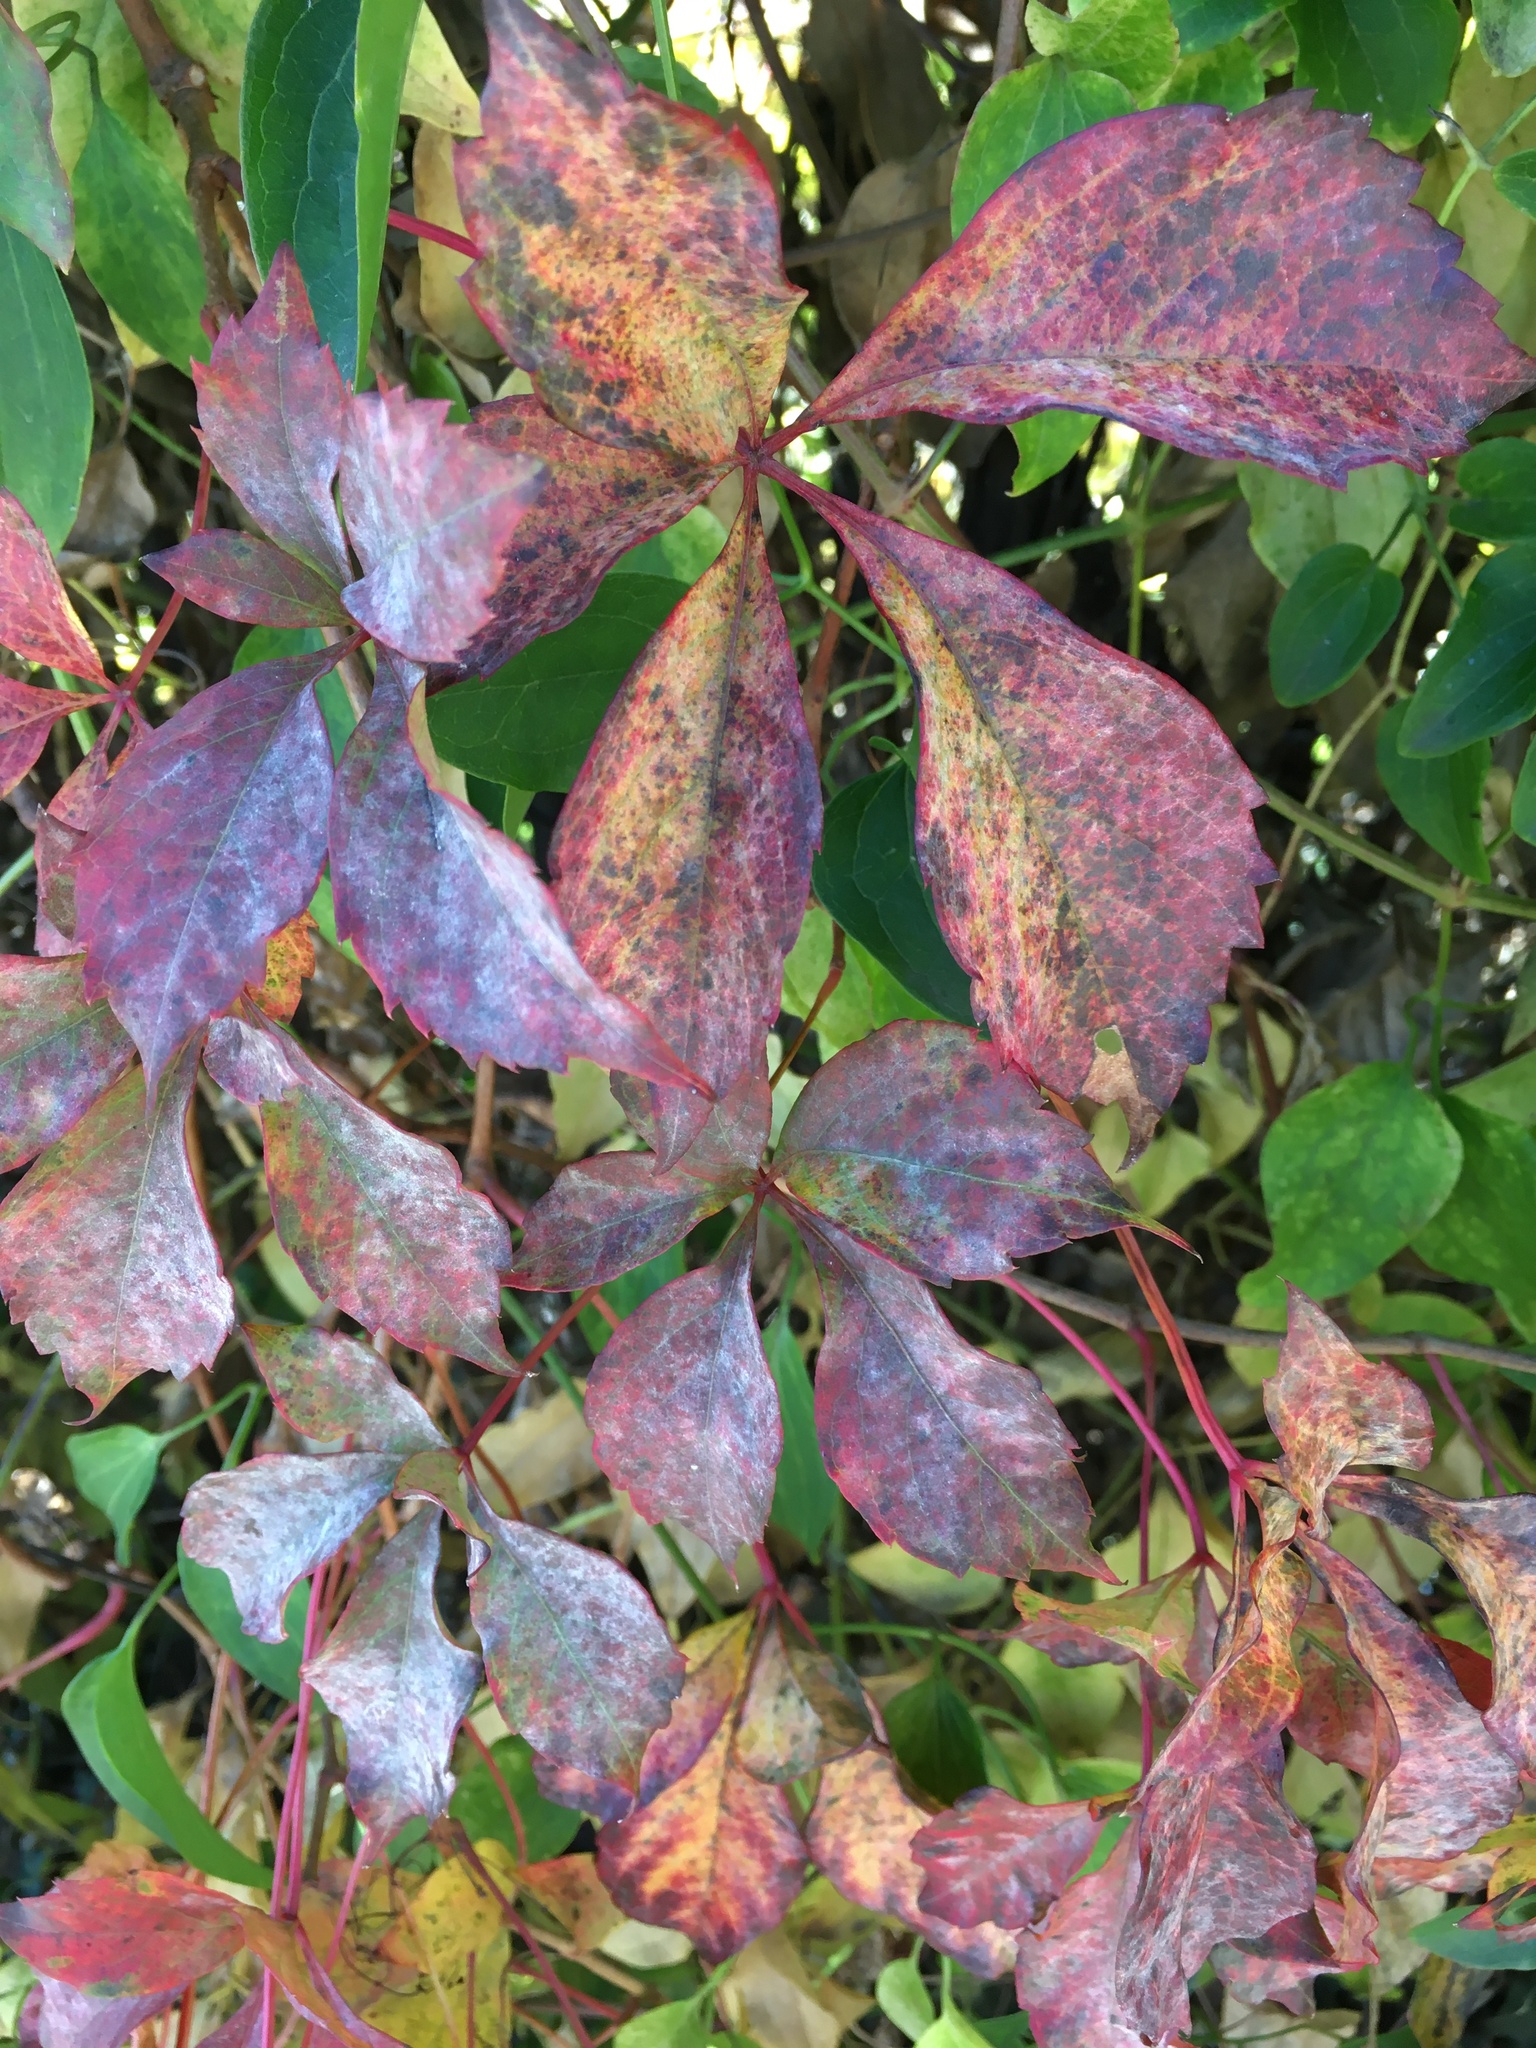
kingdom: Plantae
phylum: Tracheophyta
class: Magnoliopsida
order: Vitales
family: Vitaceae
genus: Parthenocissus
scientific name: Parthenocissus quinquefolia
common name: Virginia-creeper
